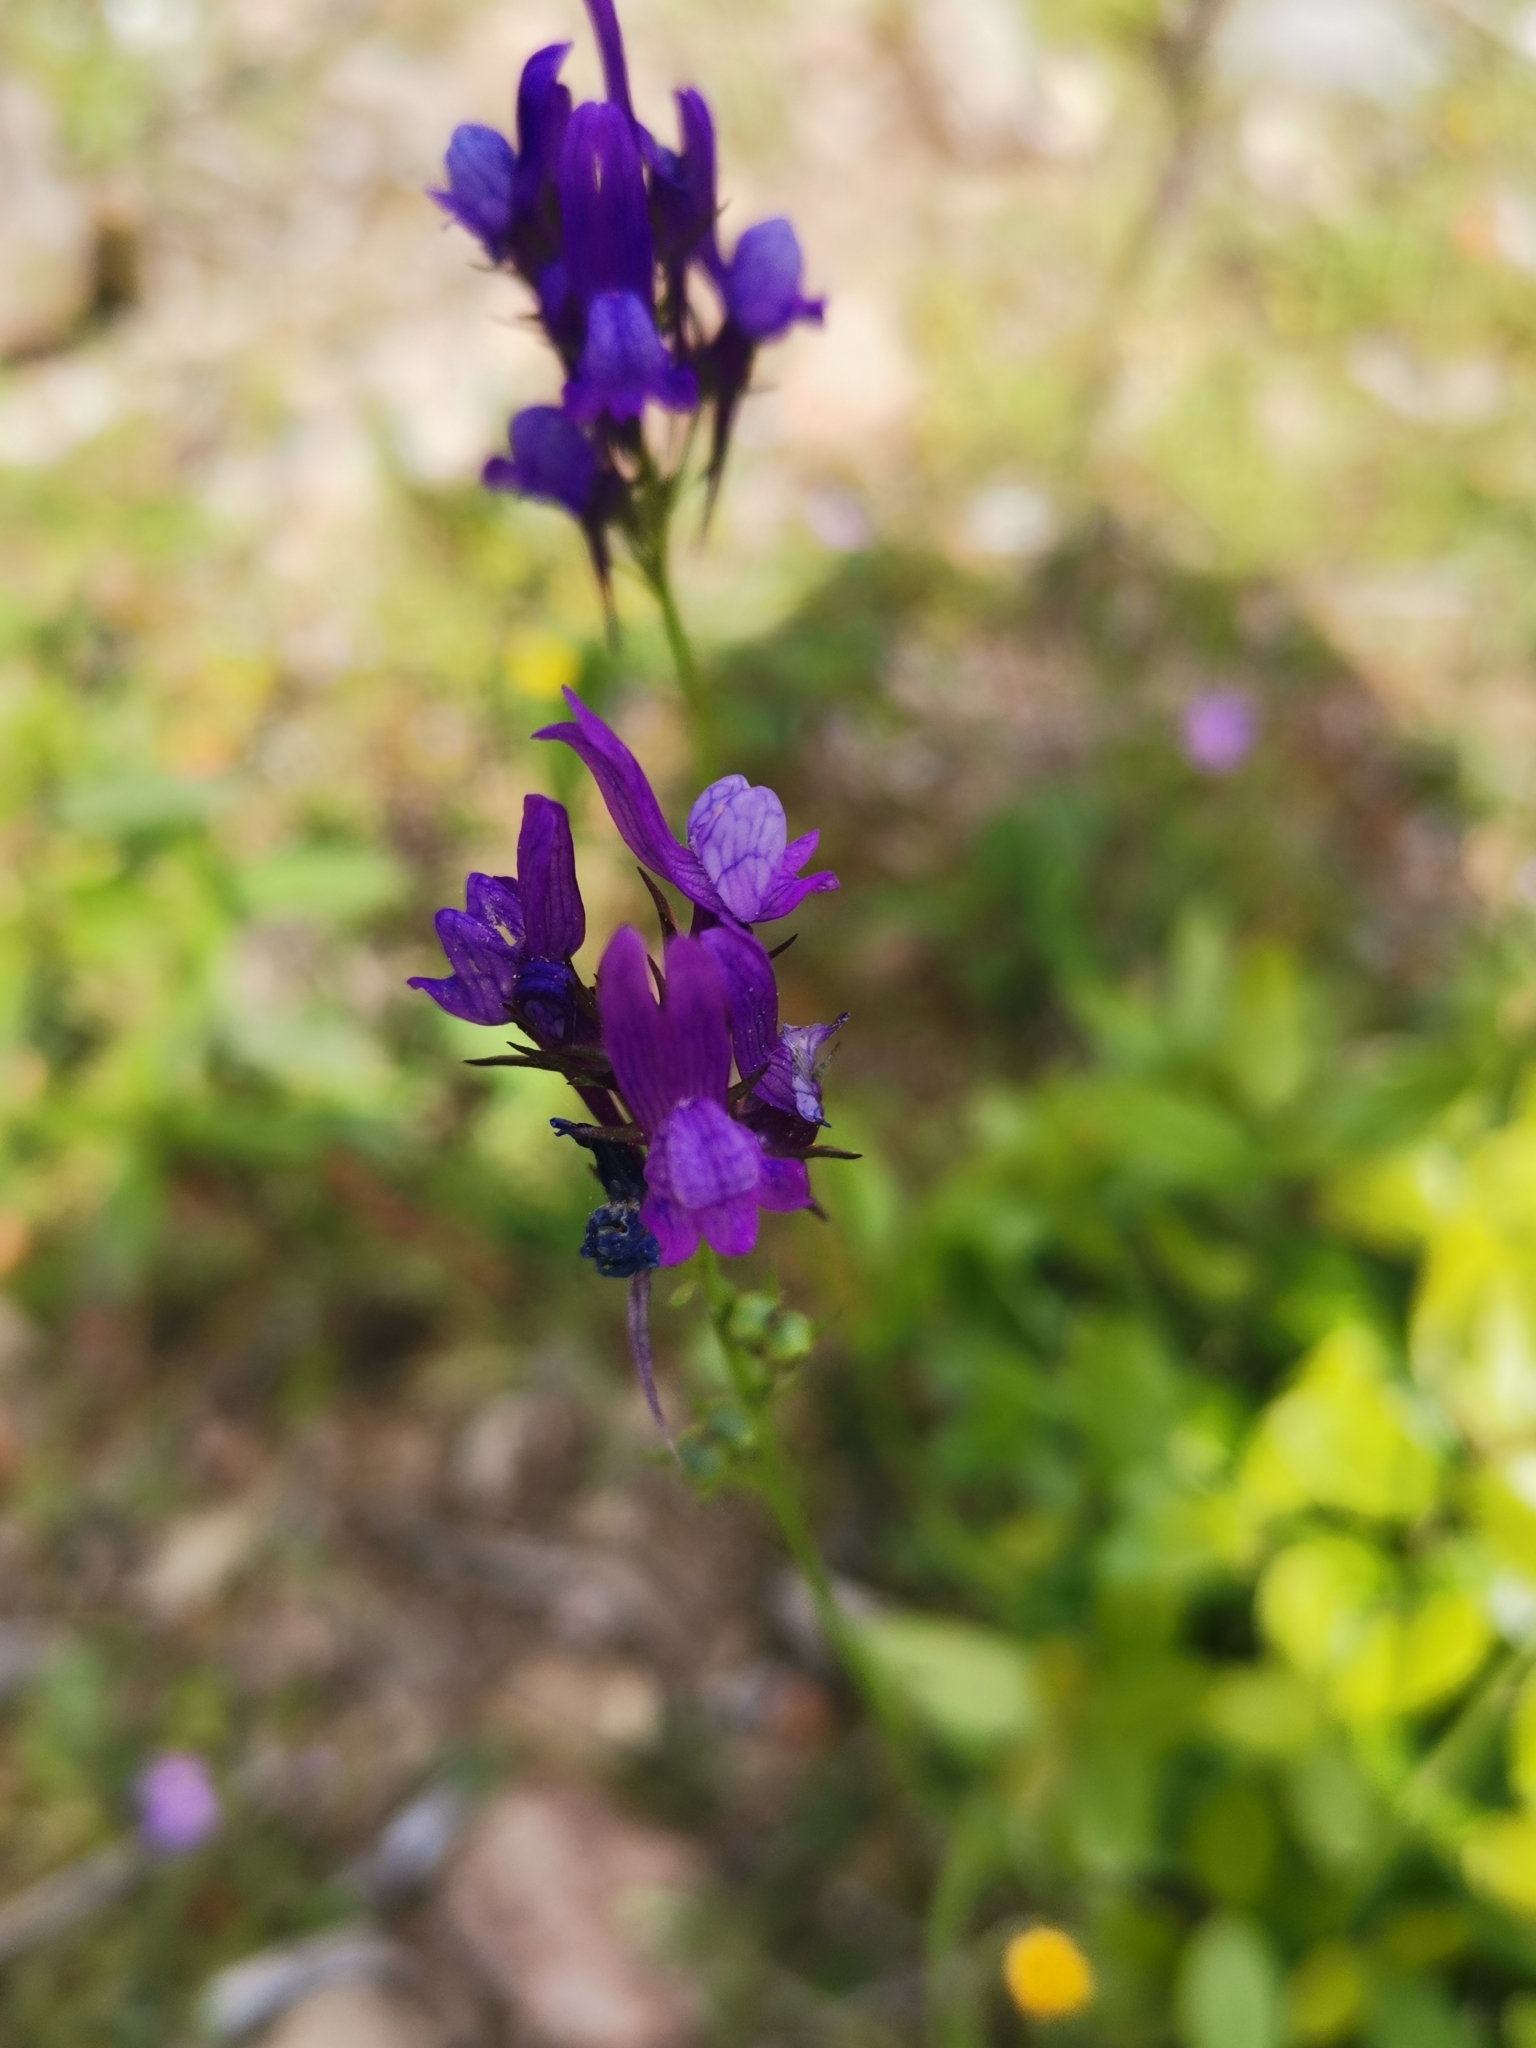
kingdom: Plantae
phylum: Tracheophyta
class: Magnoliopsida
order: Lamiales
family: Plantaginaceae
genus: Linaria
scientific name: Linaria pelisseriana
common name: Jersey toadflax
